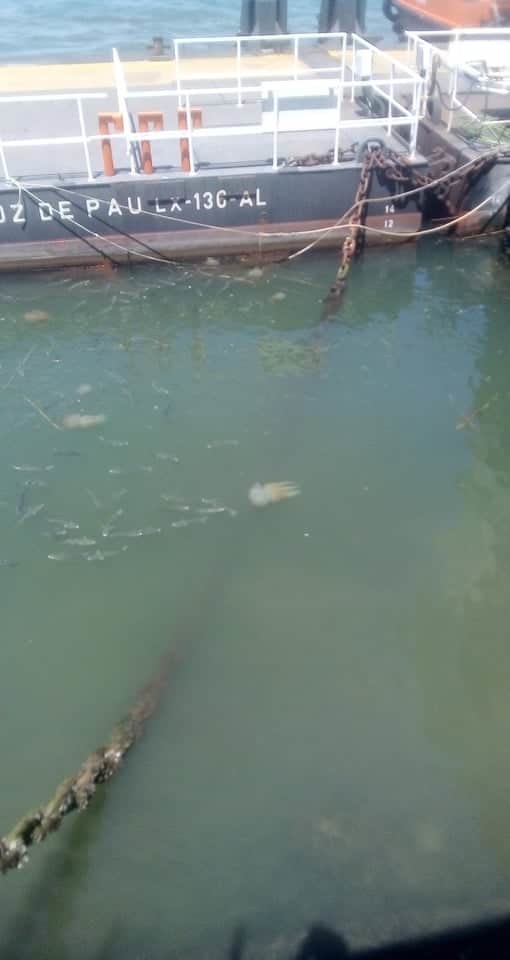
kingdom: Animalia
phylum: Cnidaria
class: Scyphozoa
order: Rhizostomeae
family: Catostylidae
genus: Catostylus
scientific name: Catostylus tagi
